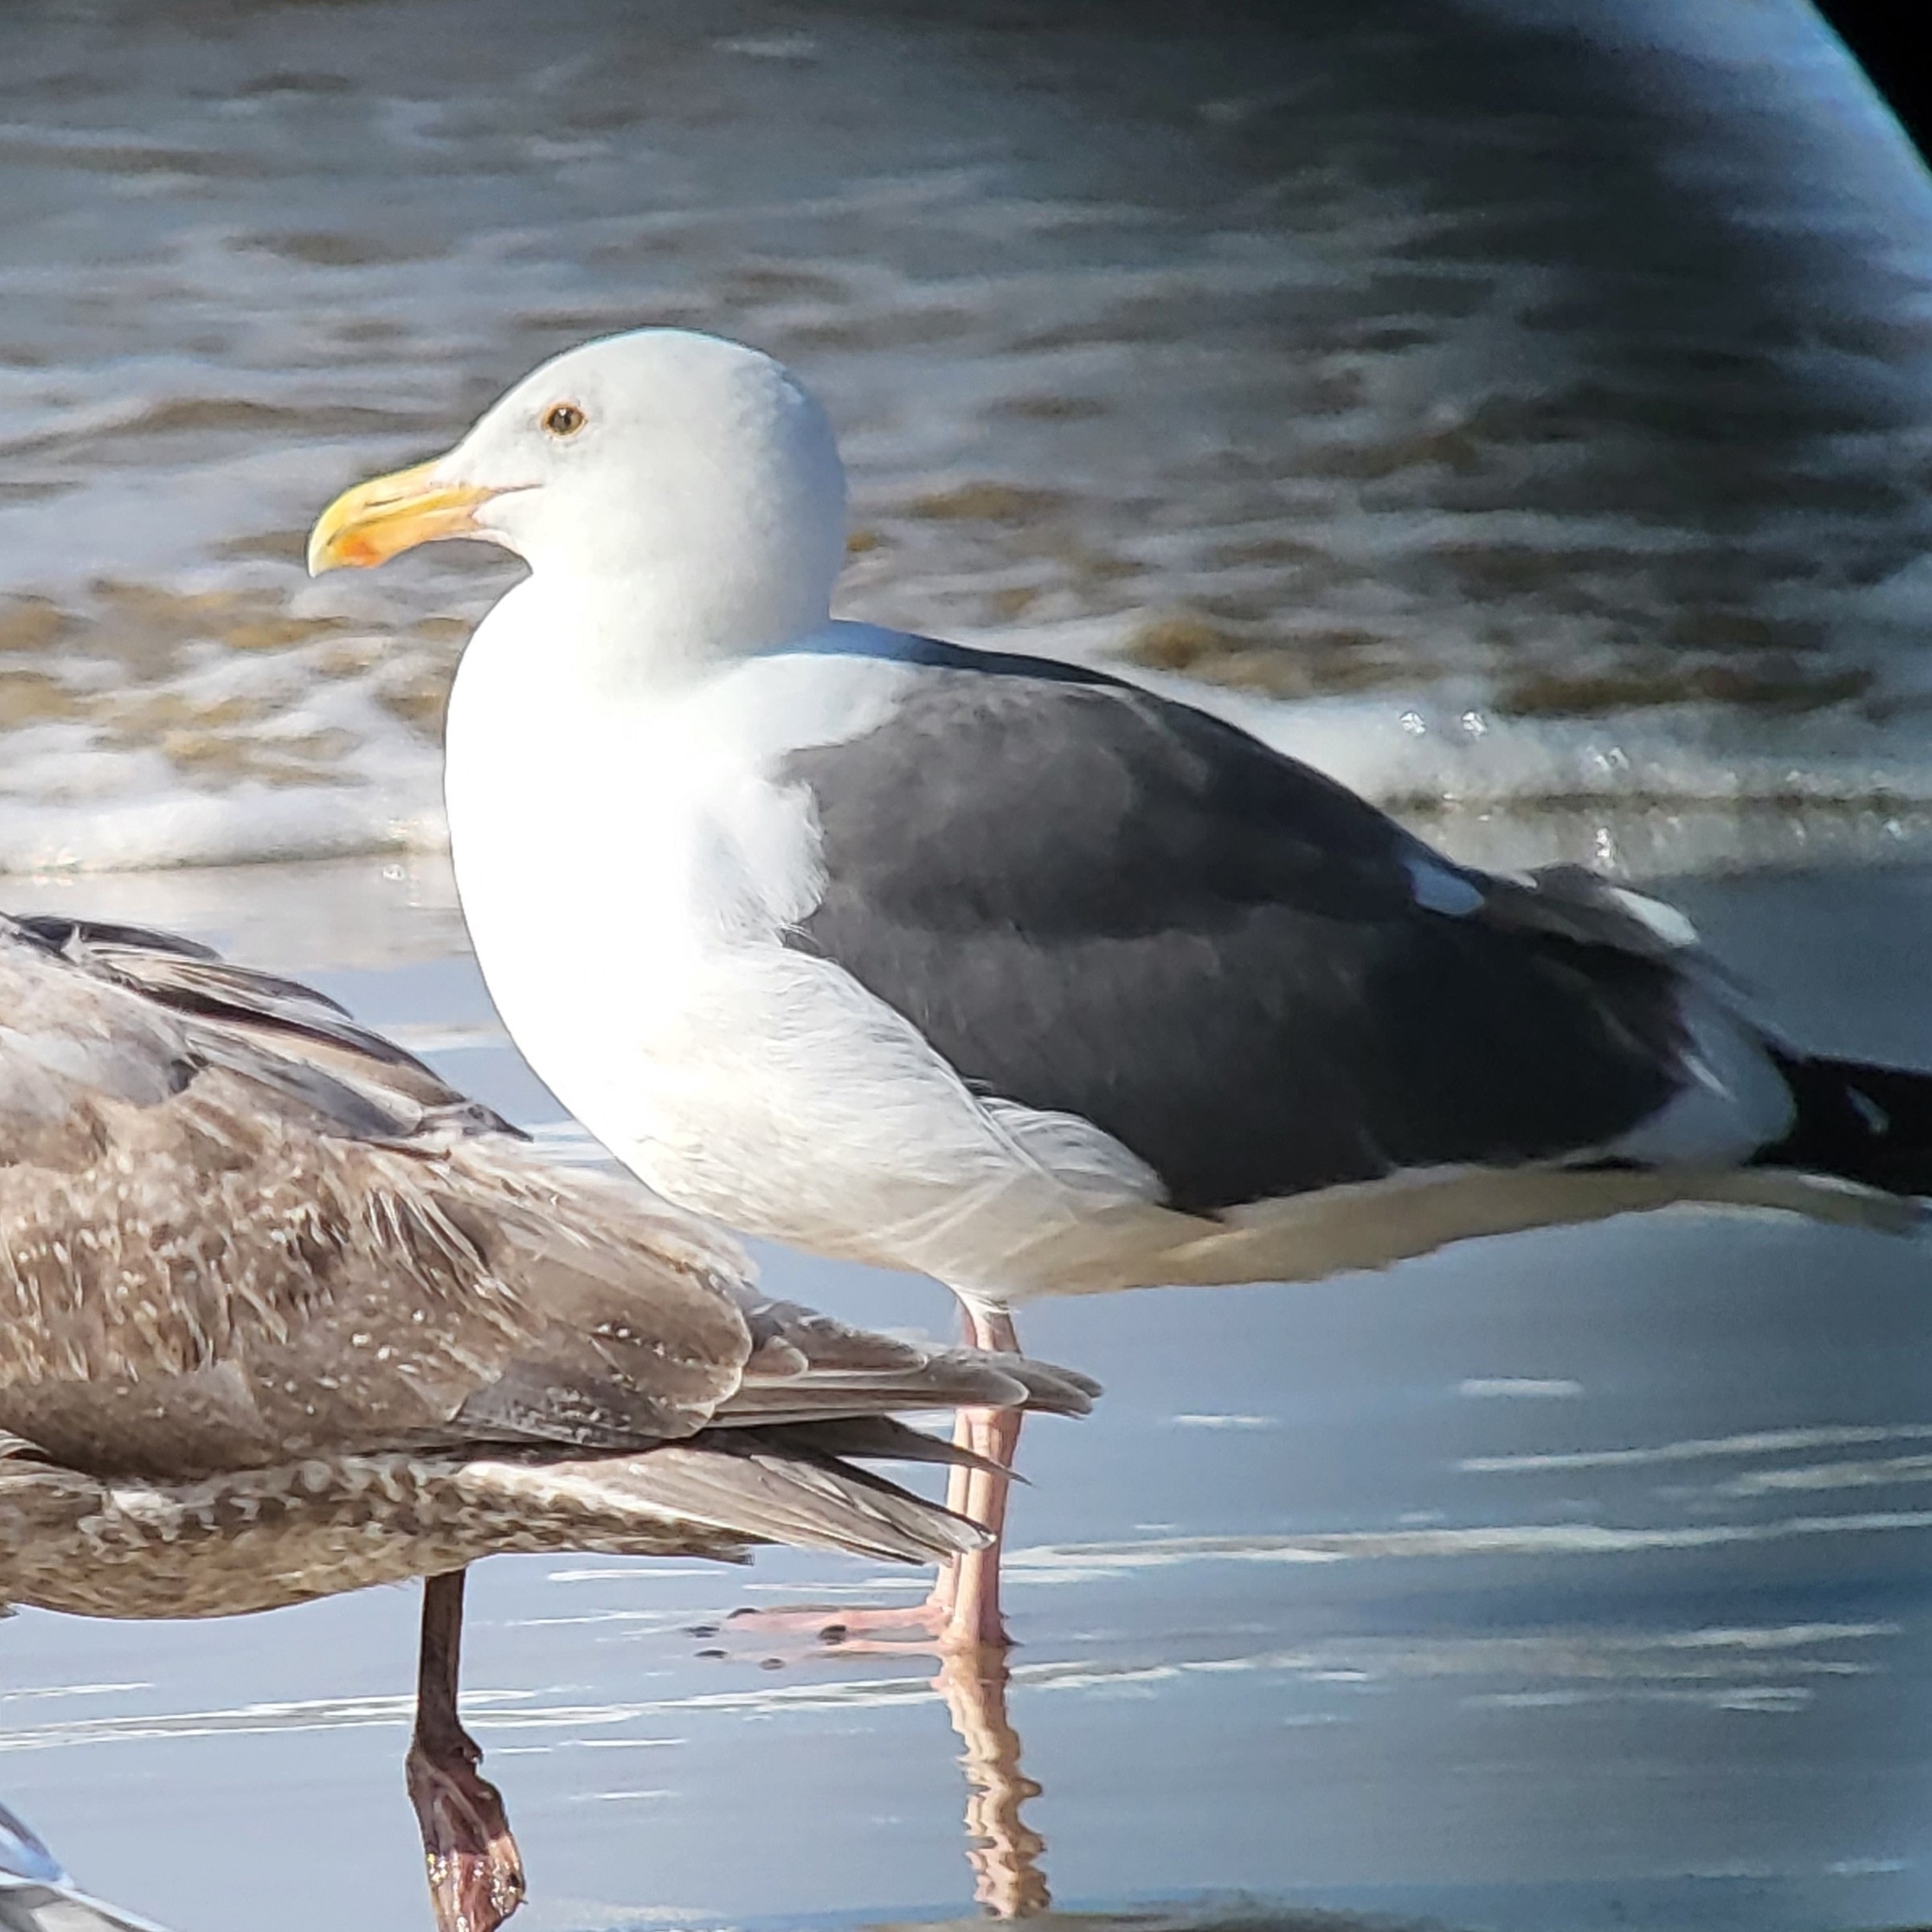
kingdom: Animalia
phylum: Chordata
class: Aves
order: Charadriiformes
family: Laridae
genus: Larus
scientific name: Larus occidentalis
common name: Western gull
